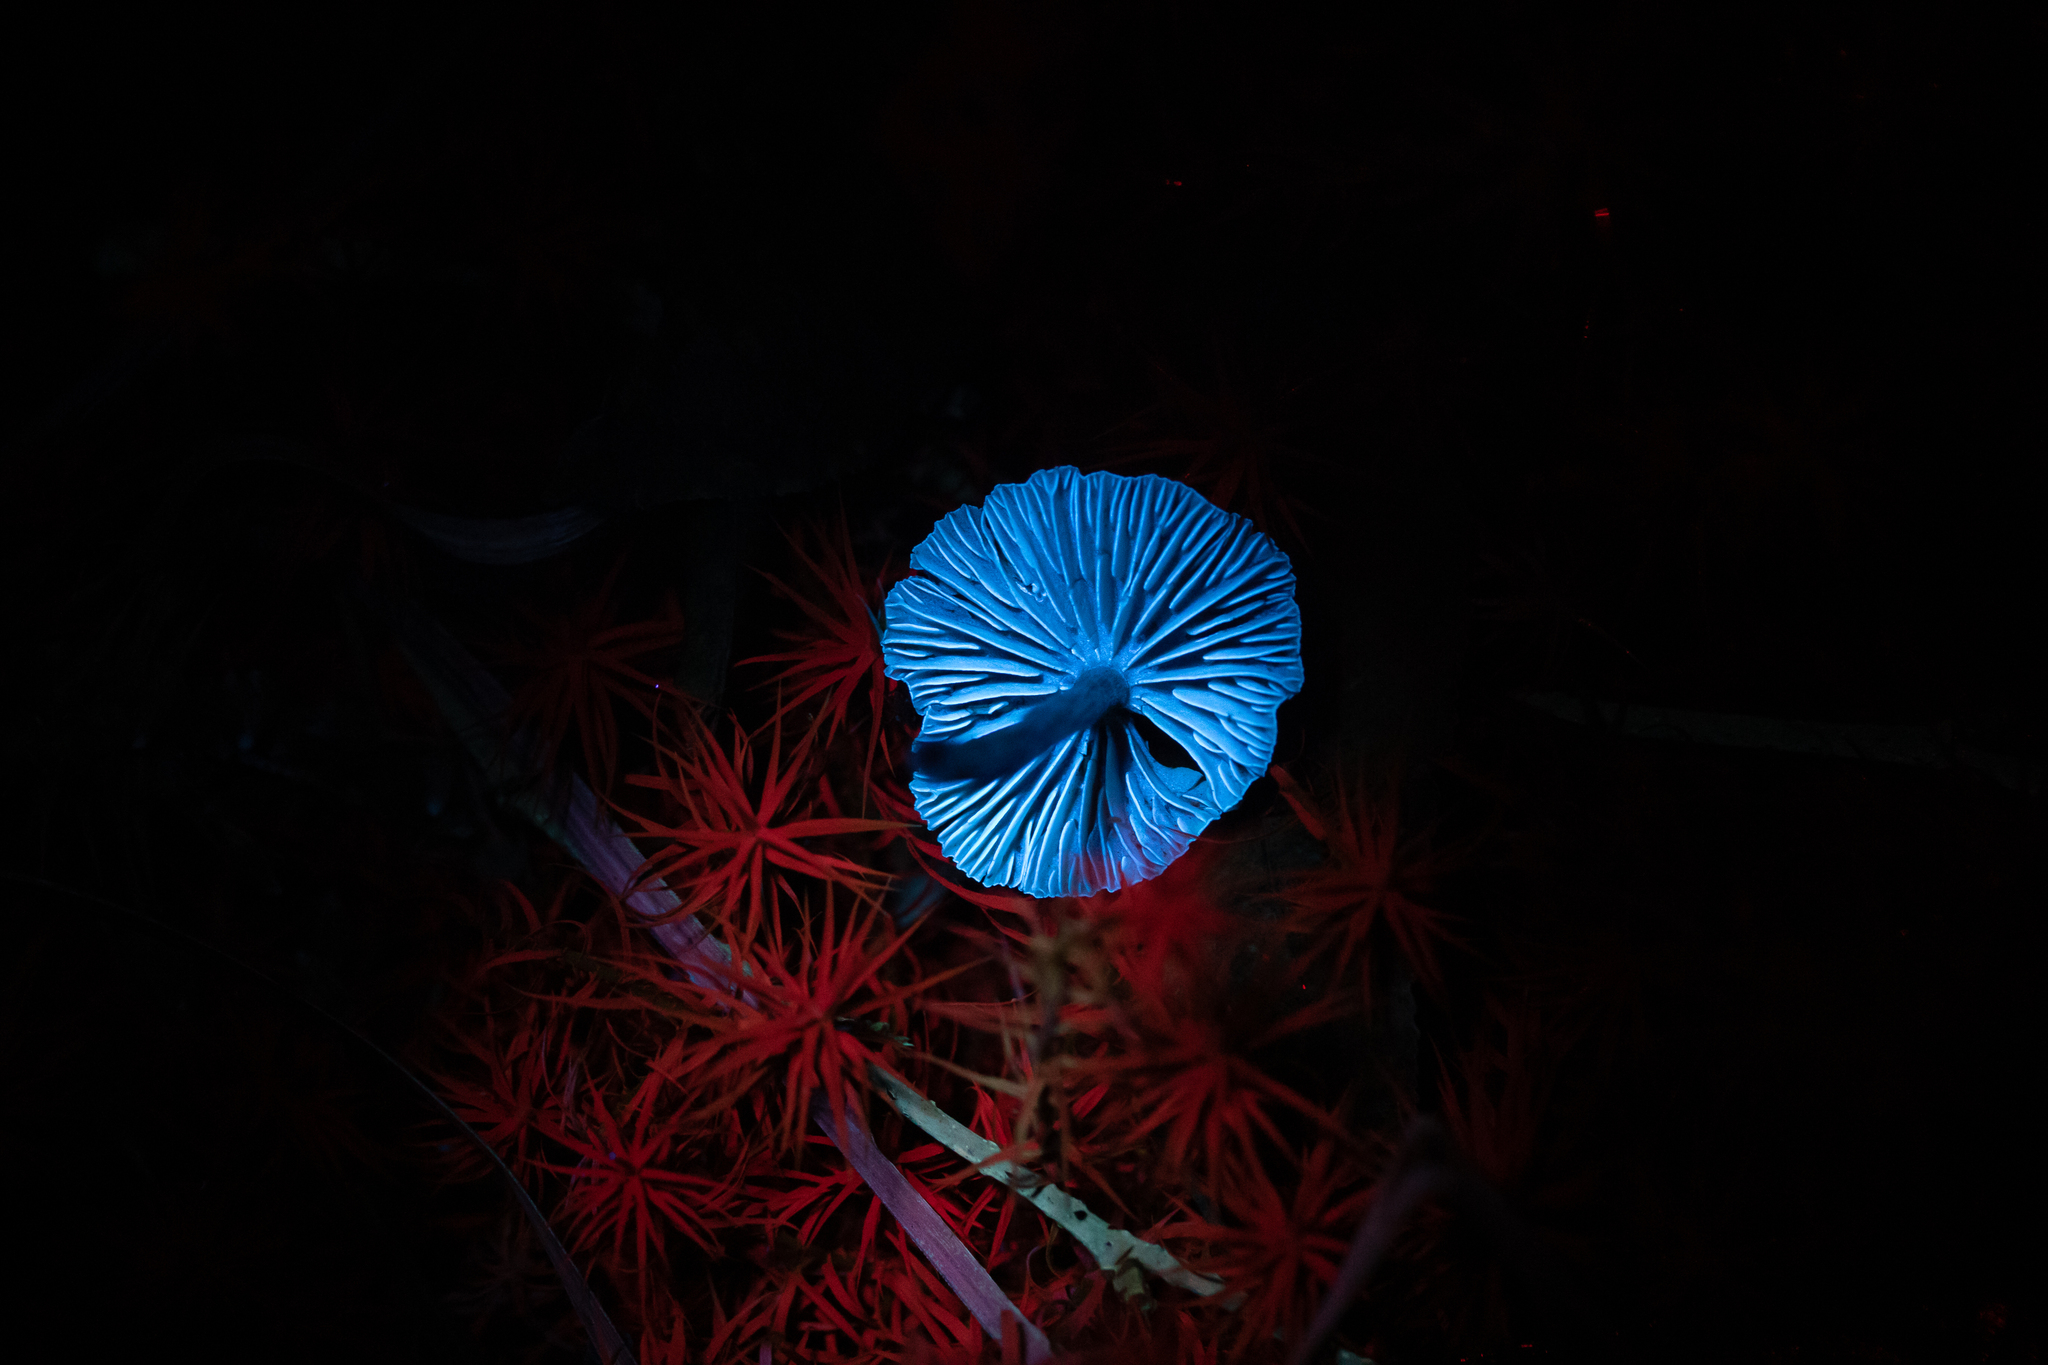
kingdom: Fungi
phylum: Basidiomycota
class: Agaricomycetes
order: Agaricales
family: Hydnangiaceae
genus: Laccaria
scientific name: Laccaria striatula
